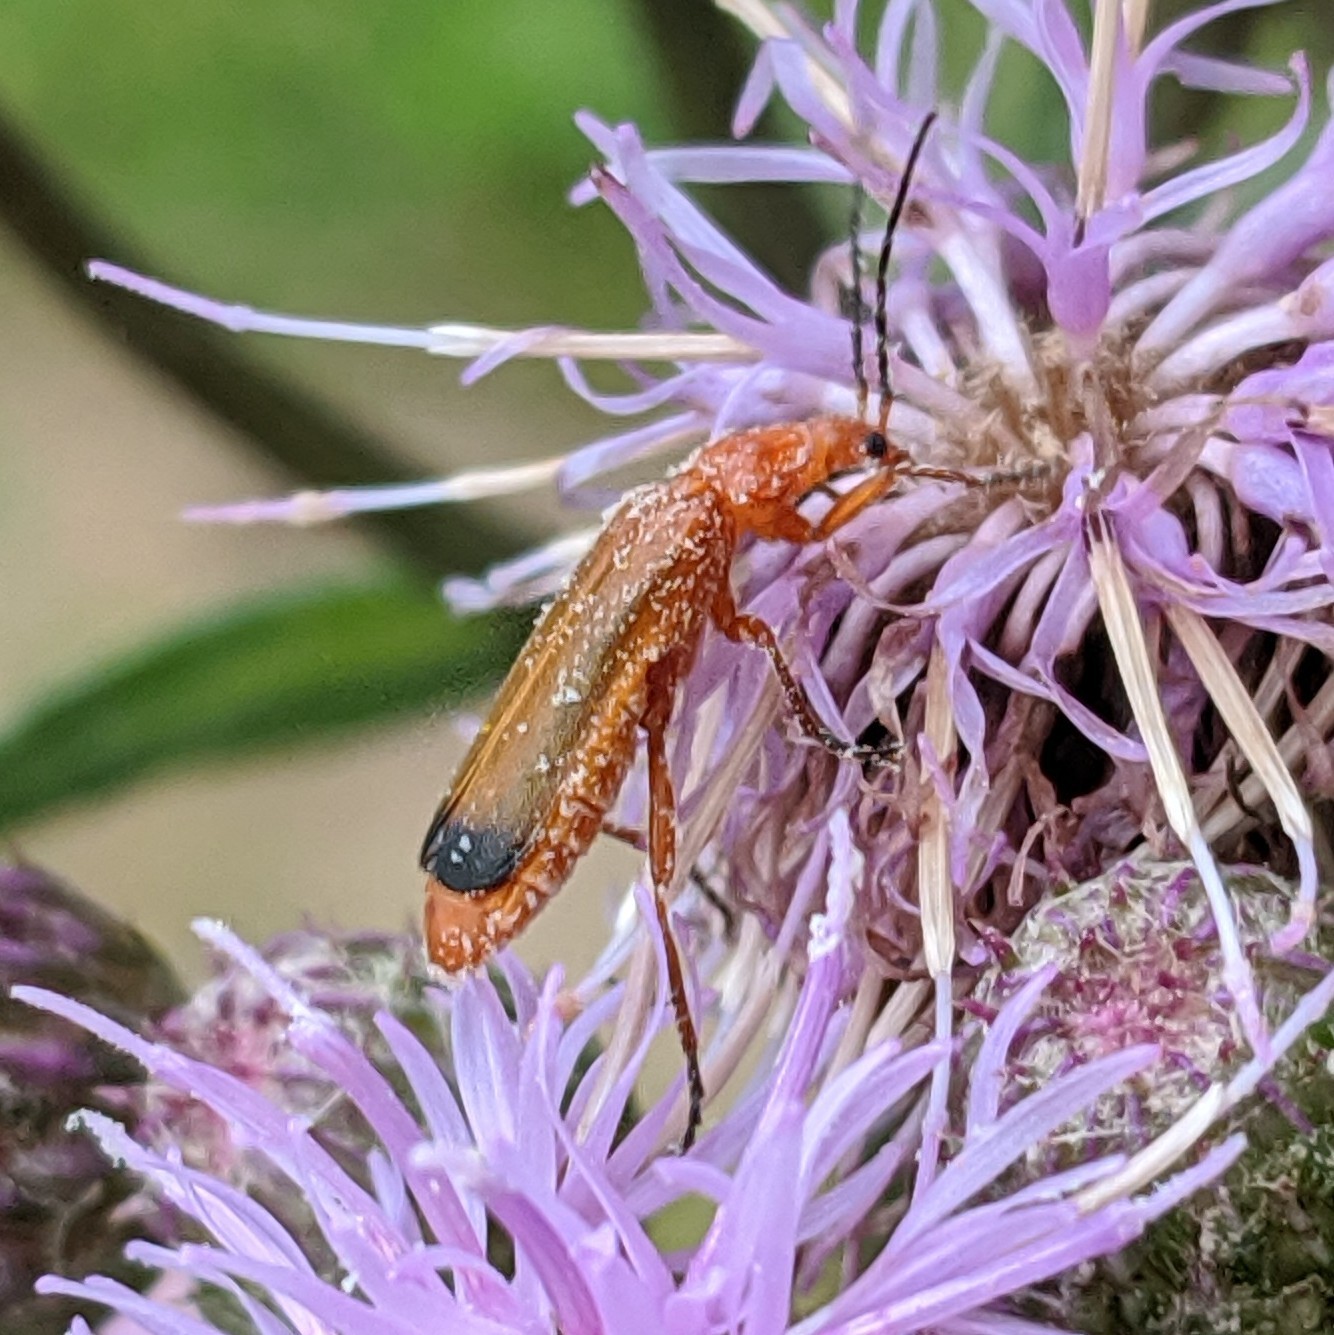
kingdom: Animalia
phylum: Arthropoda
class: Insecta
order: Coleoptera
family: Cantharidae
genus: Rhagonycha
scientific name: Rhagonycha fulva
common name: Common red soldier beetle
